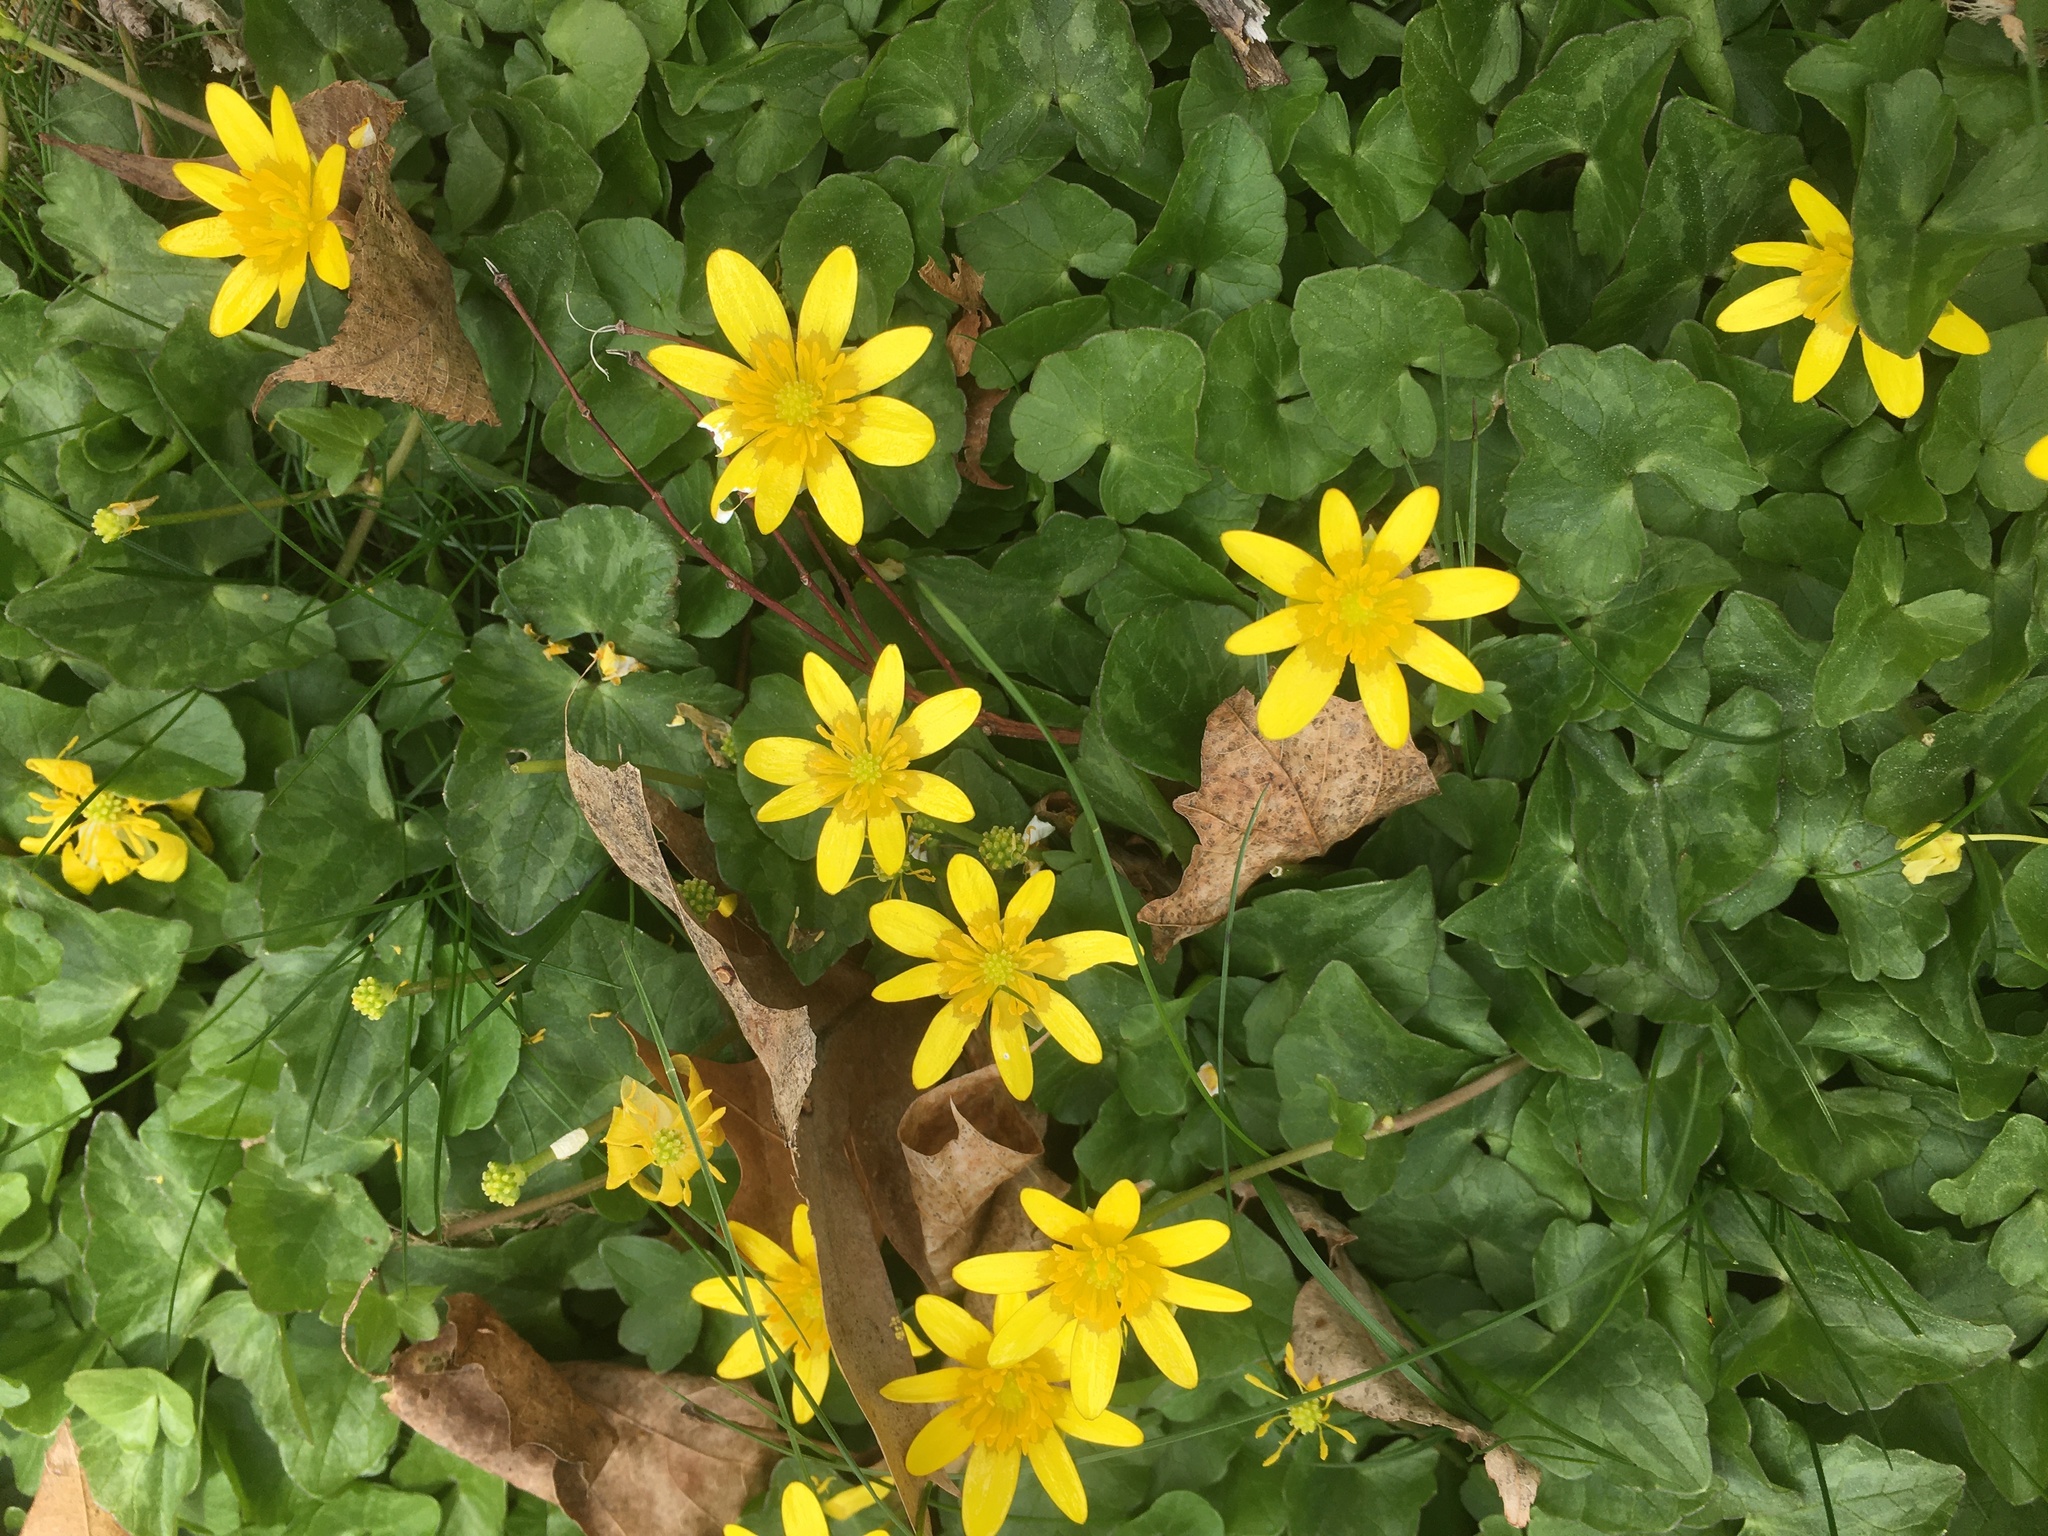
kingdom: Plantae
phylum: Tracheophyta
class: Magnoliopsida
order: Ranunculales
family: Ranunculaceae
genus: Ficaria
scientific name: Ficaria verna
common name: Lesser celandine
